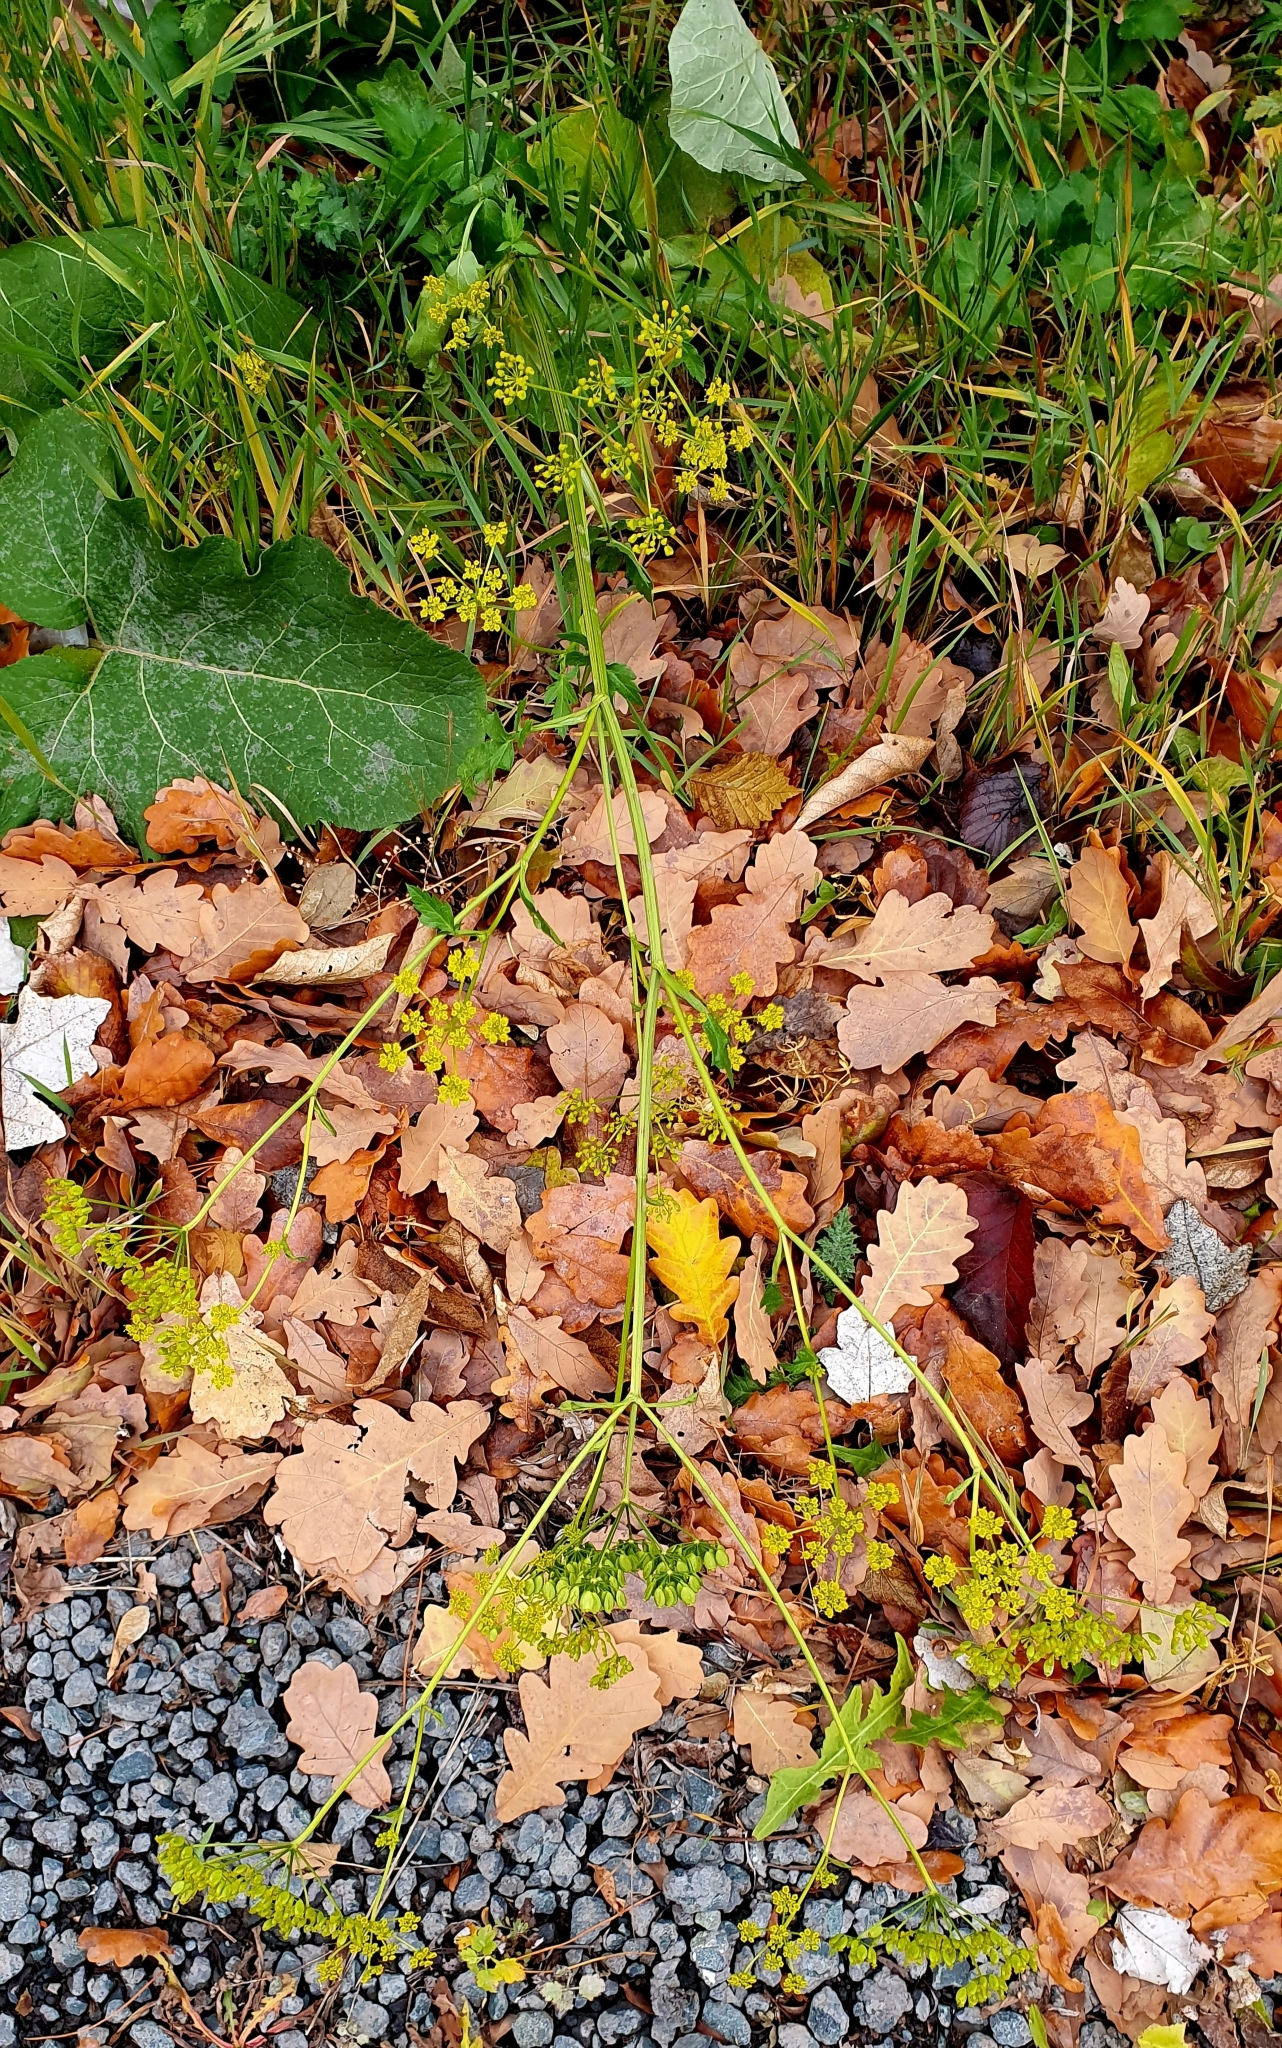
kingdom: Plantae
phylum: Tracheophyta
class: Magnoliopsida
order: Apiales
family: Apiaceae
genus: Pastinaca
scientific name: Pastinaca sativa
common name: Wild parsnip
